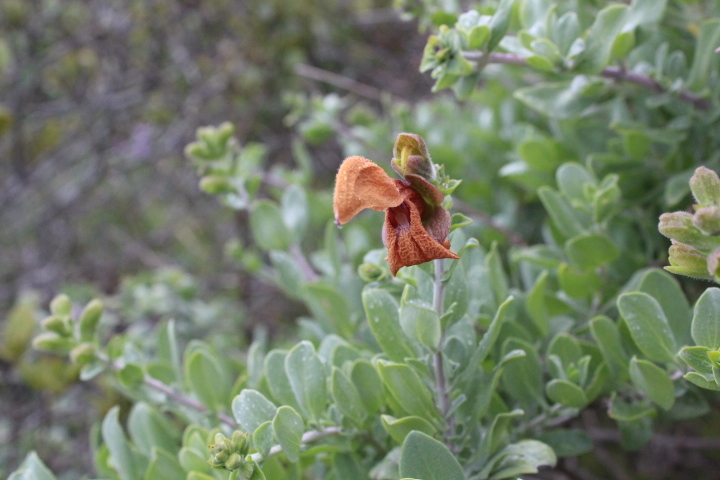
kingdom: Plantae
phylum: Tracheophyta
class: Magnoliopsida
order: Lamiales
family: Lamiaceae
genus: Salvia
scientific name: Salvia aurea
